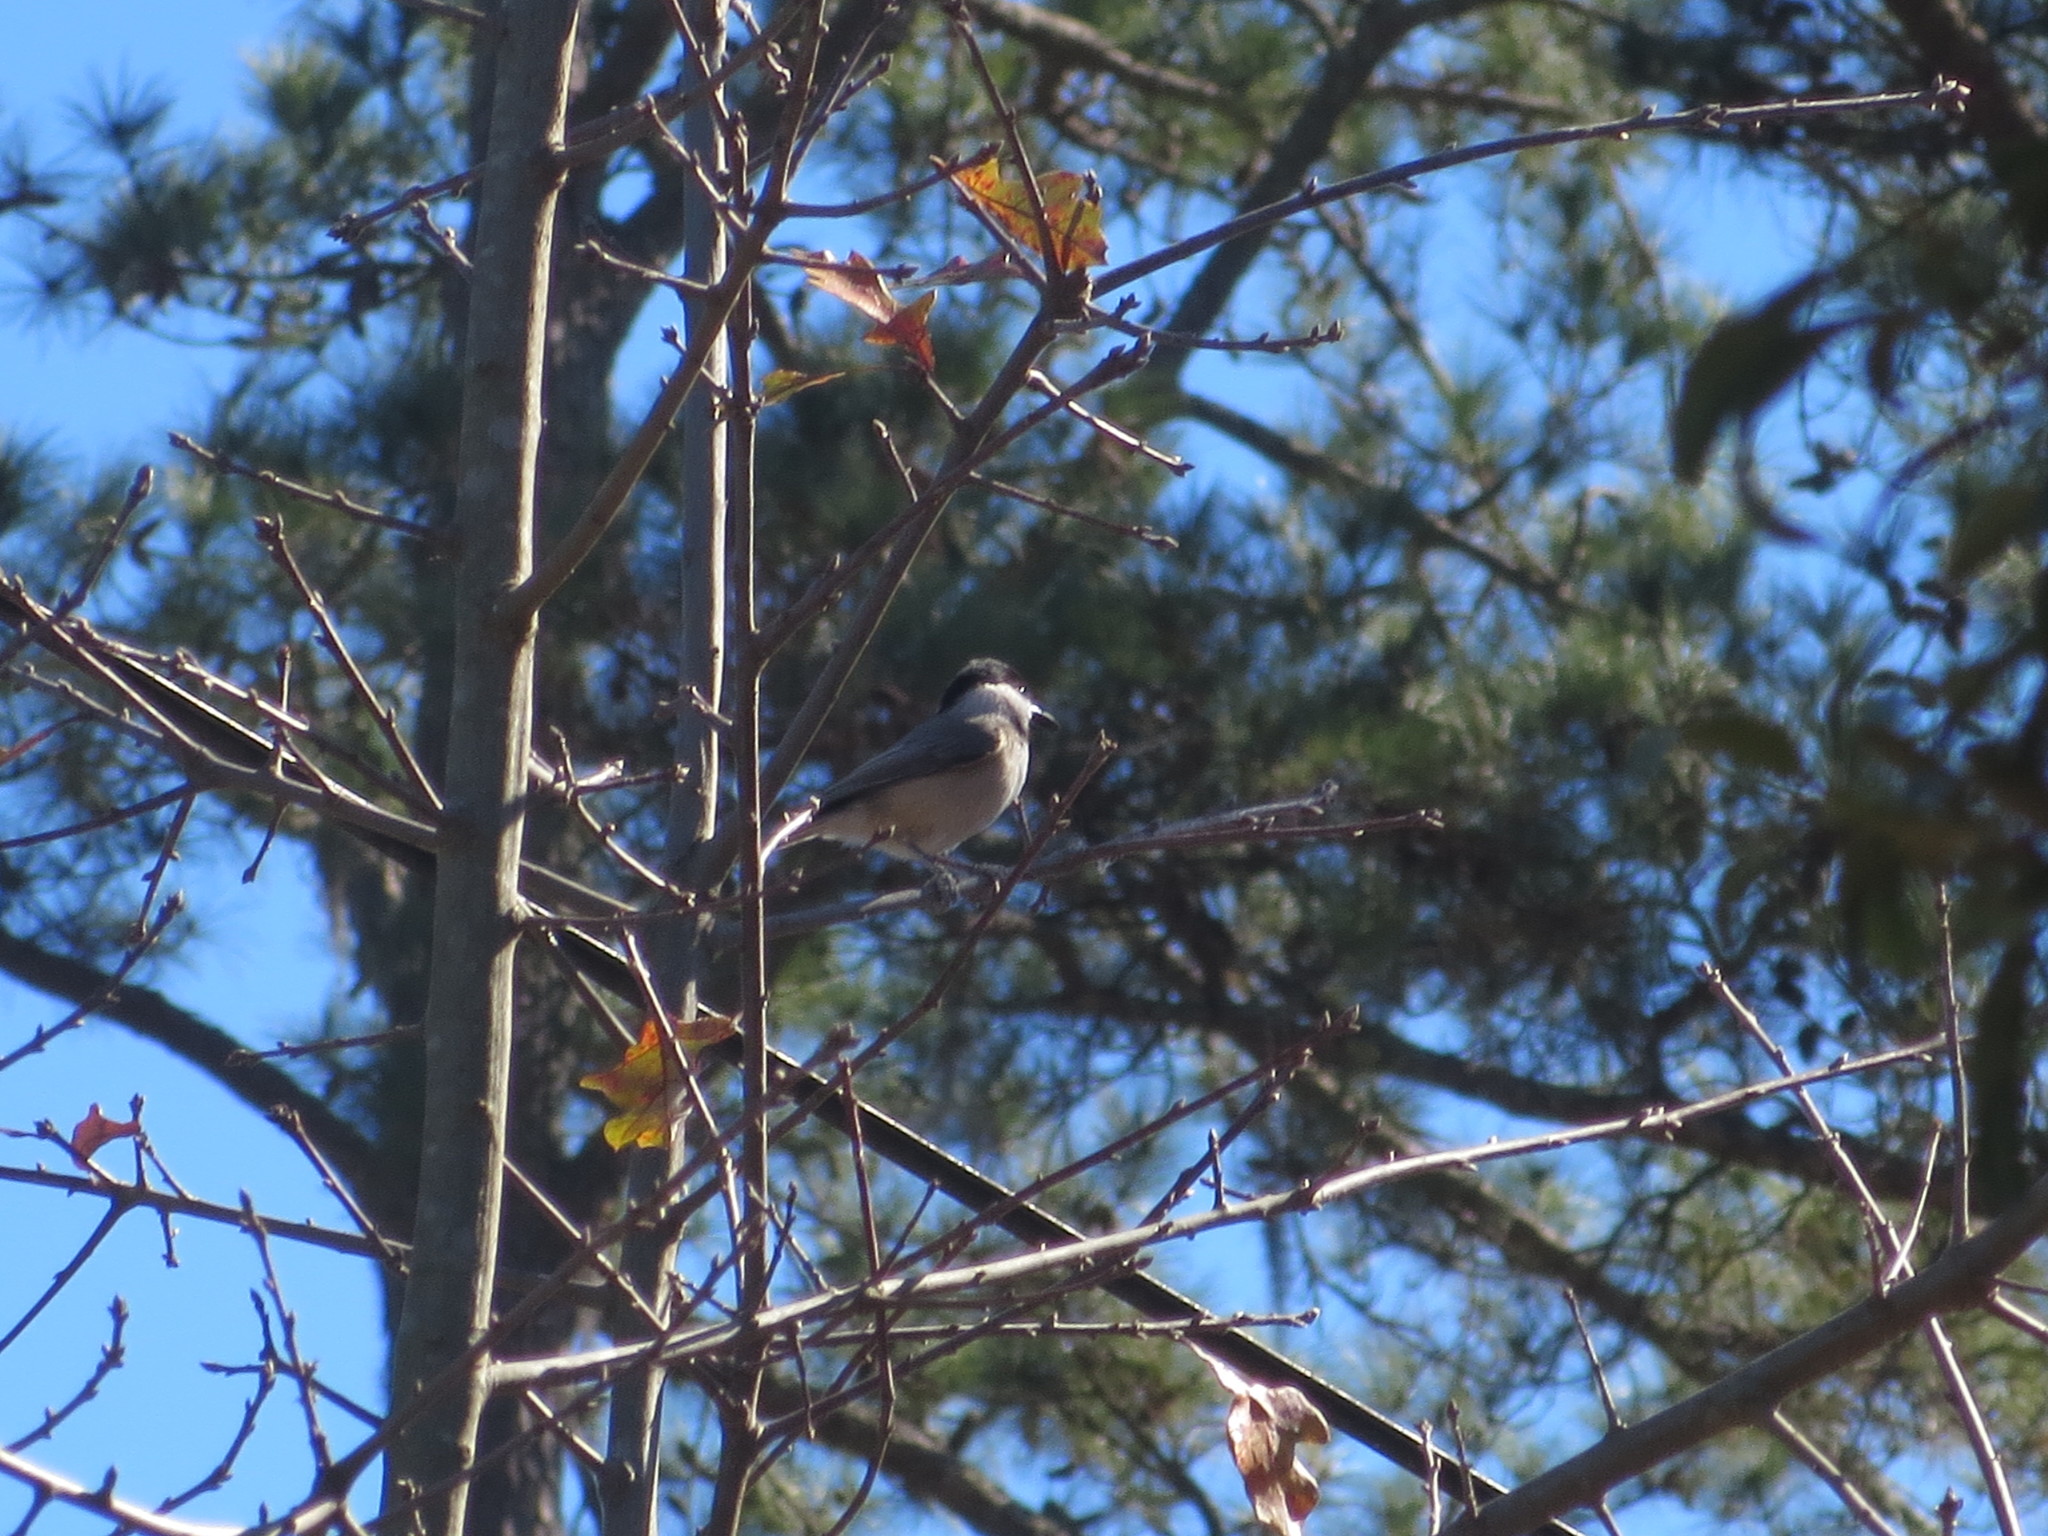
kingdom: Animalia
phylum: Chordata
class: Aves
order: Passeriformes
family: Paridae
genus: Poecile
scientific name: Poecile carolinensis
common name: Carolina chickadee
